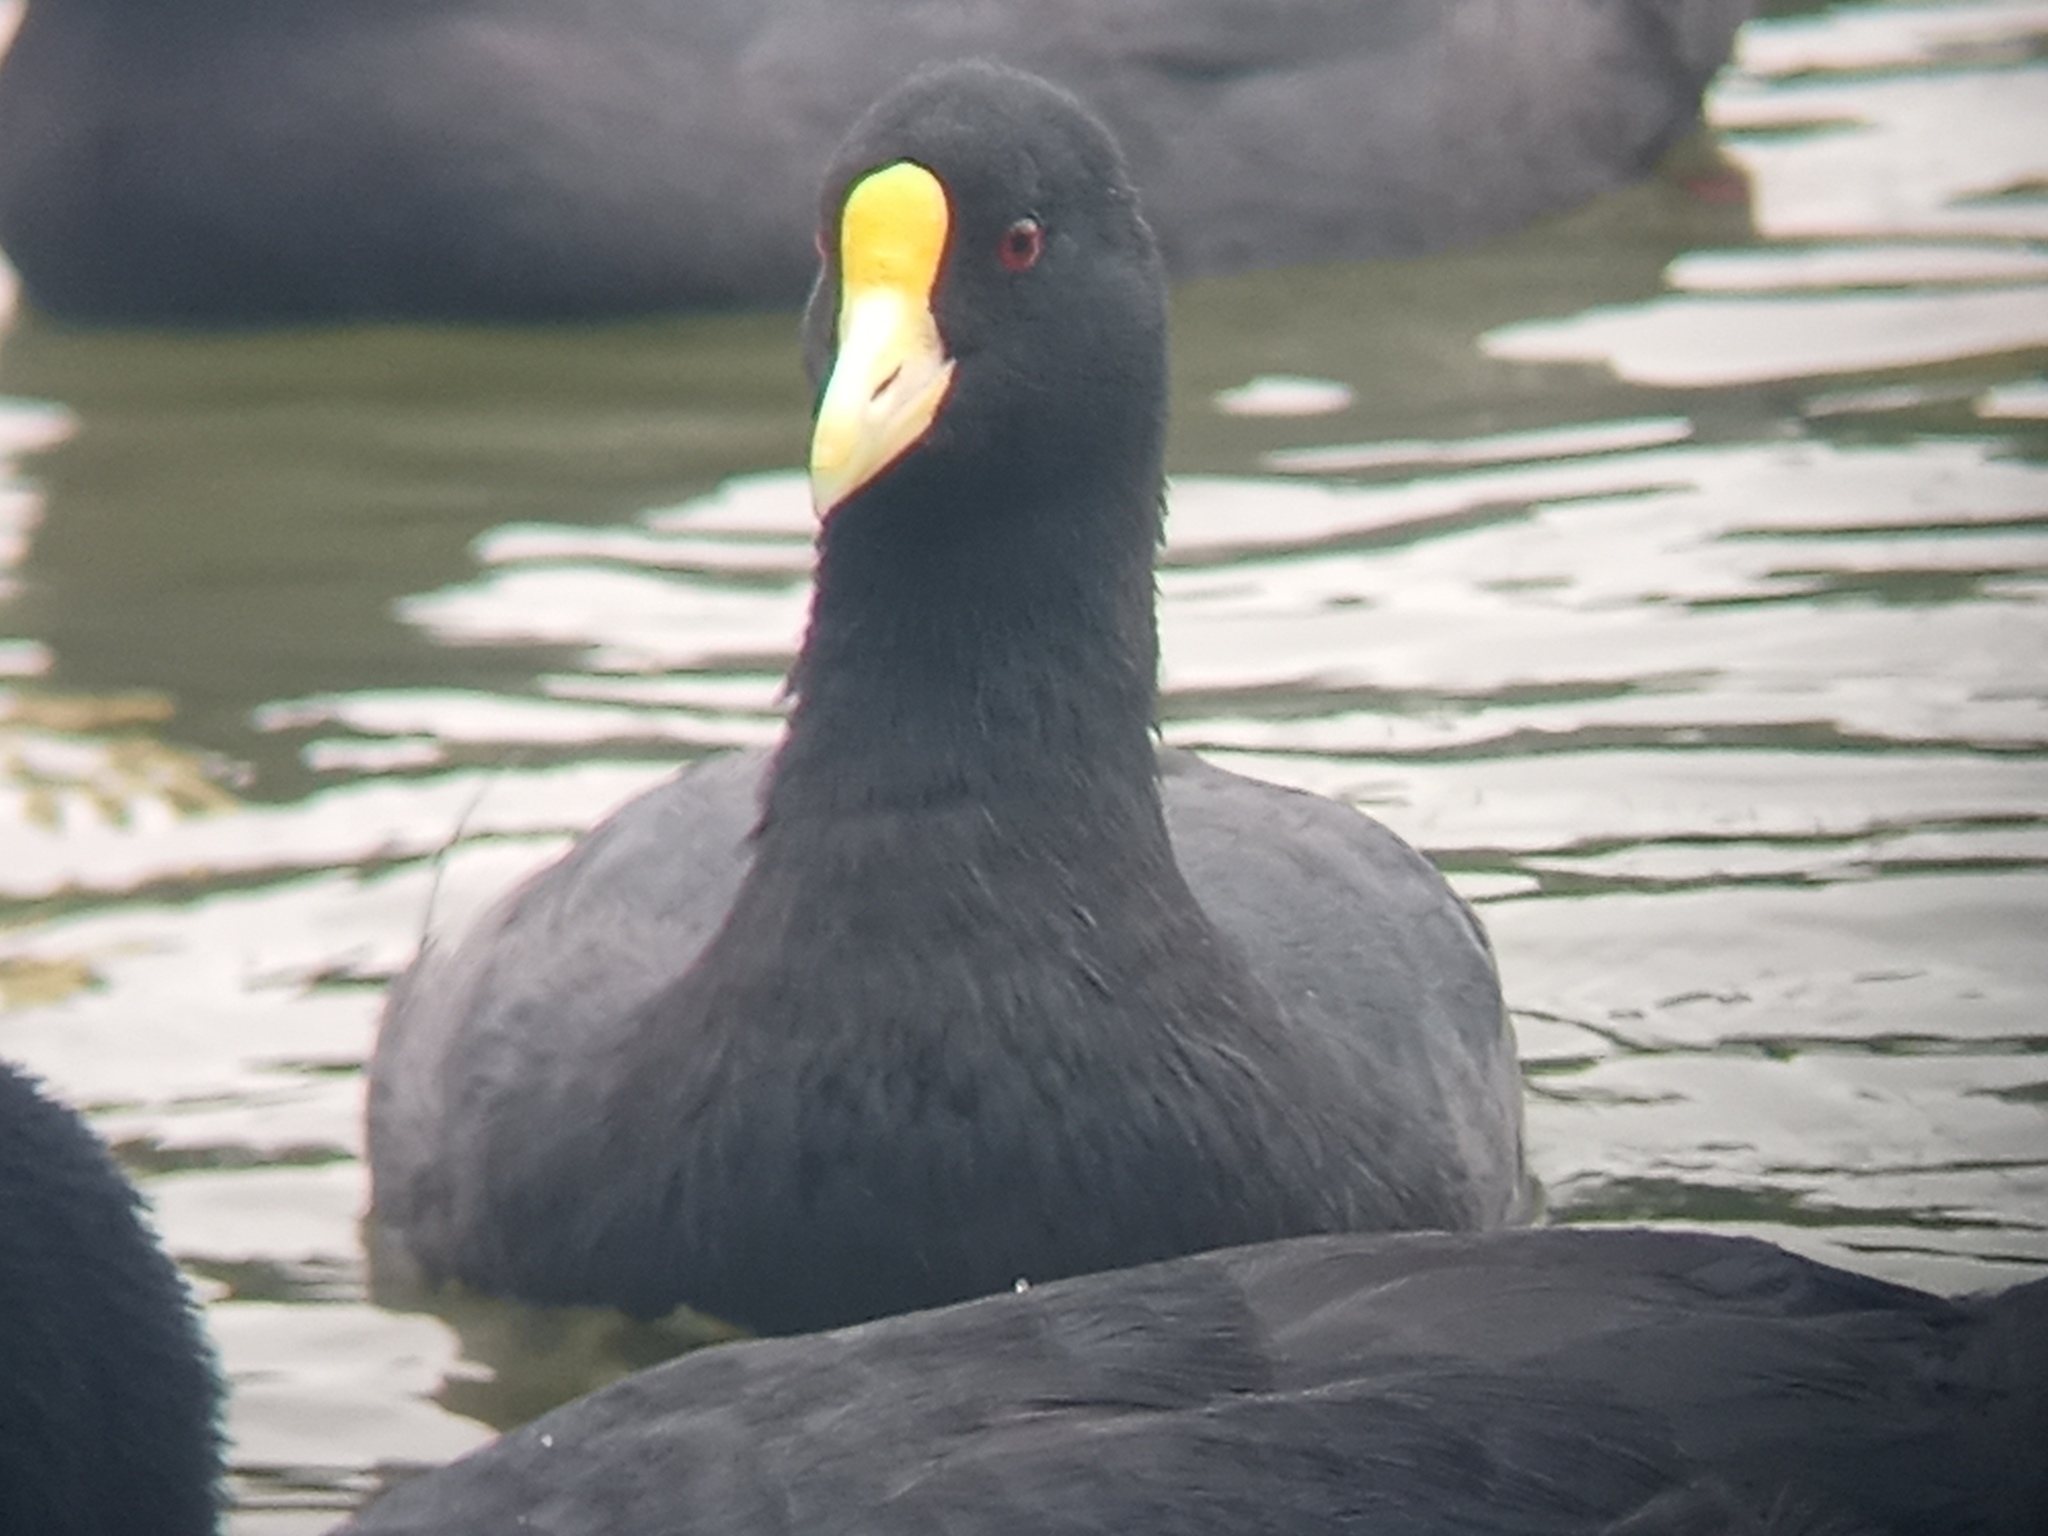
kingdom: Animalia
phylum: Chordata
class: Aves
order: Gruiformes
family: Rallidae
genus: Fulica
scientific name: Fulica leucoptera
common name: White-winged coot
